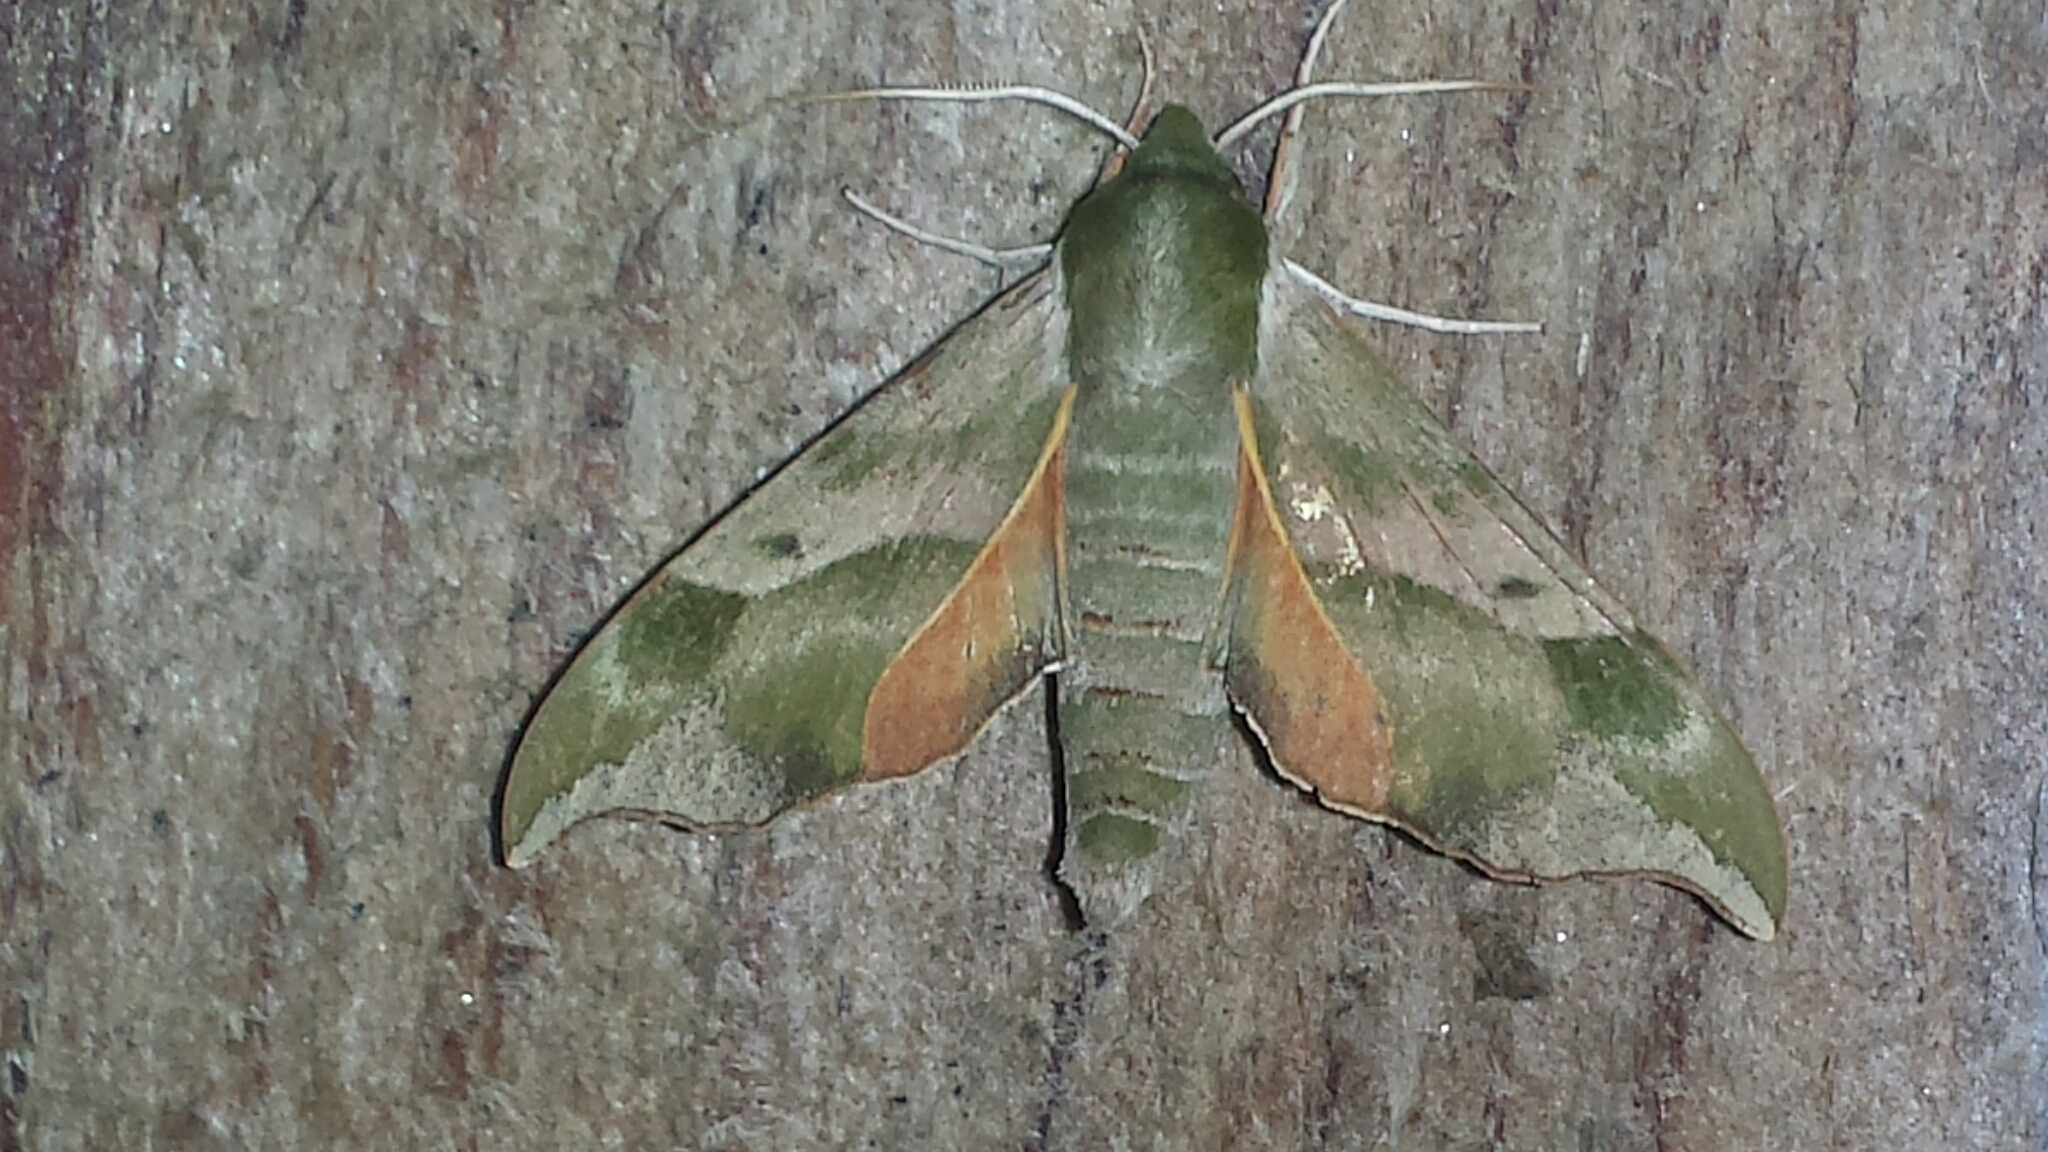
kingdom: Animalia
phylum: Arthropoda
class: Insecta
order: Lepidoptera
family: Sphingidae
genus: Darapsa
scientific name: Darapsa myron
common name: Hog sphinx
